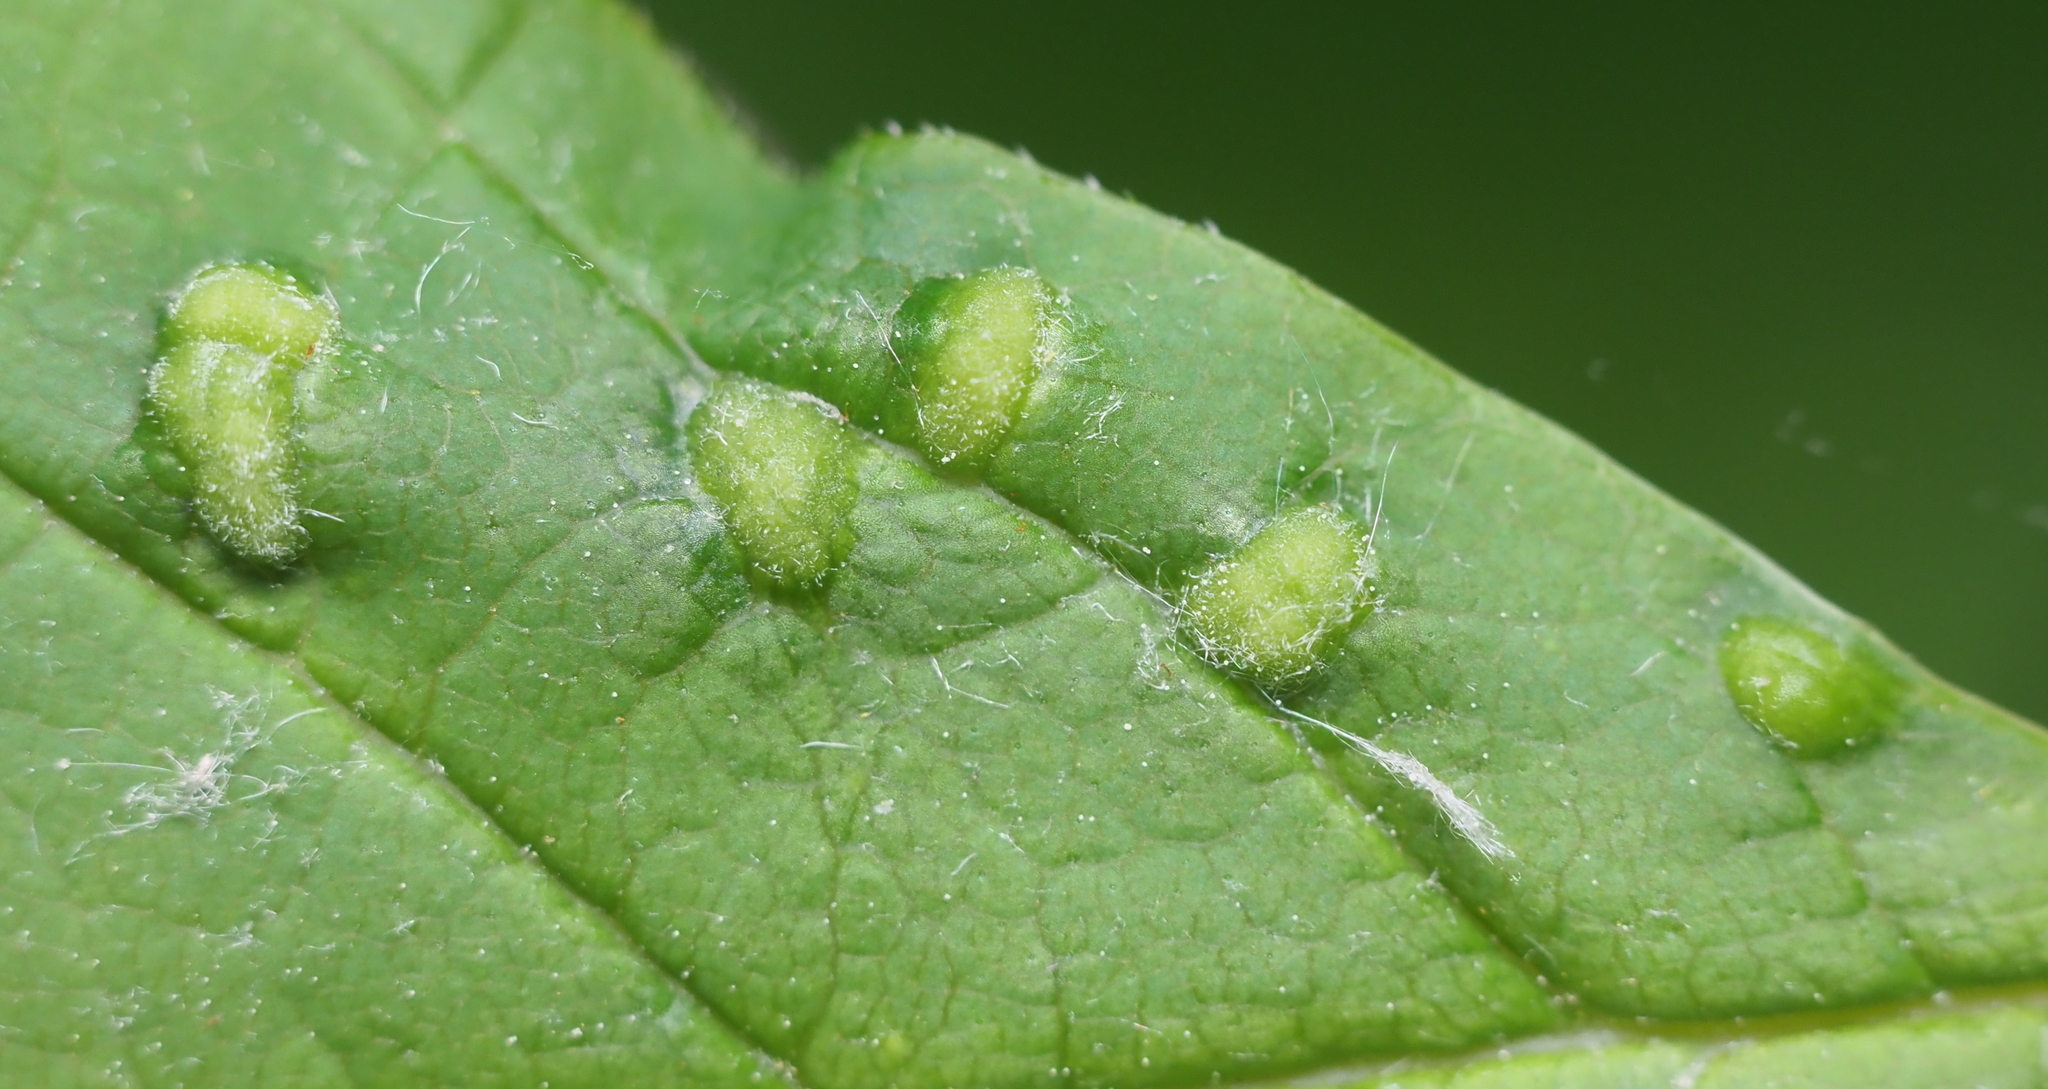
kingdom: Animalia
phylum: Arthropoda
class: Arachnida
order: Trombidiformes
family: Eriophyidae
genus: Aceria
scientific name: Aceria fraxinicola
